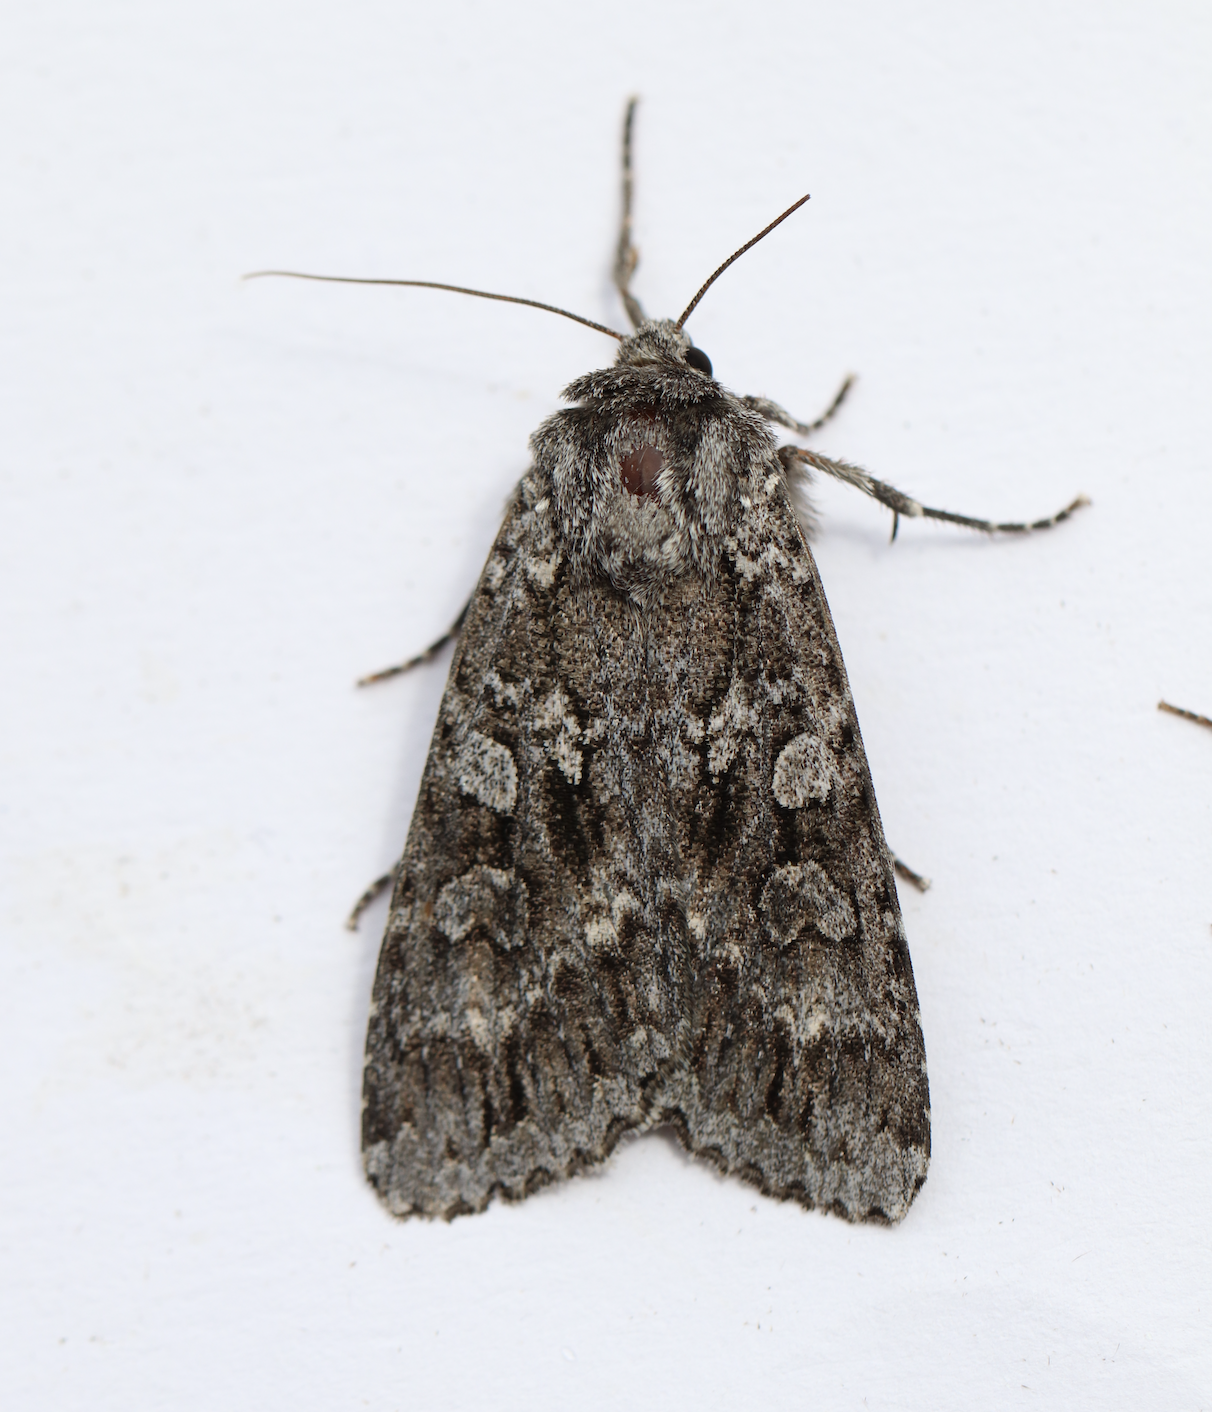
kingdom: Animalia
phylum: Arthropoda
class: Insecta
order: Lepidoptera
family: Noctuidae
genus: Eurois
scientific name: Eurois occulta
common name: Great brocade
